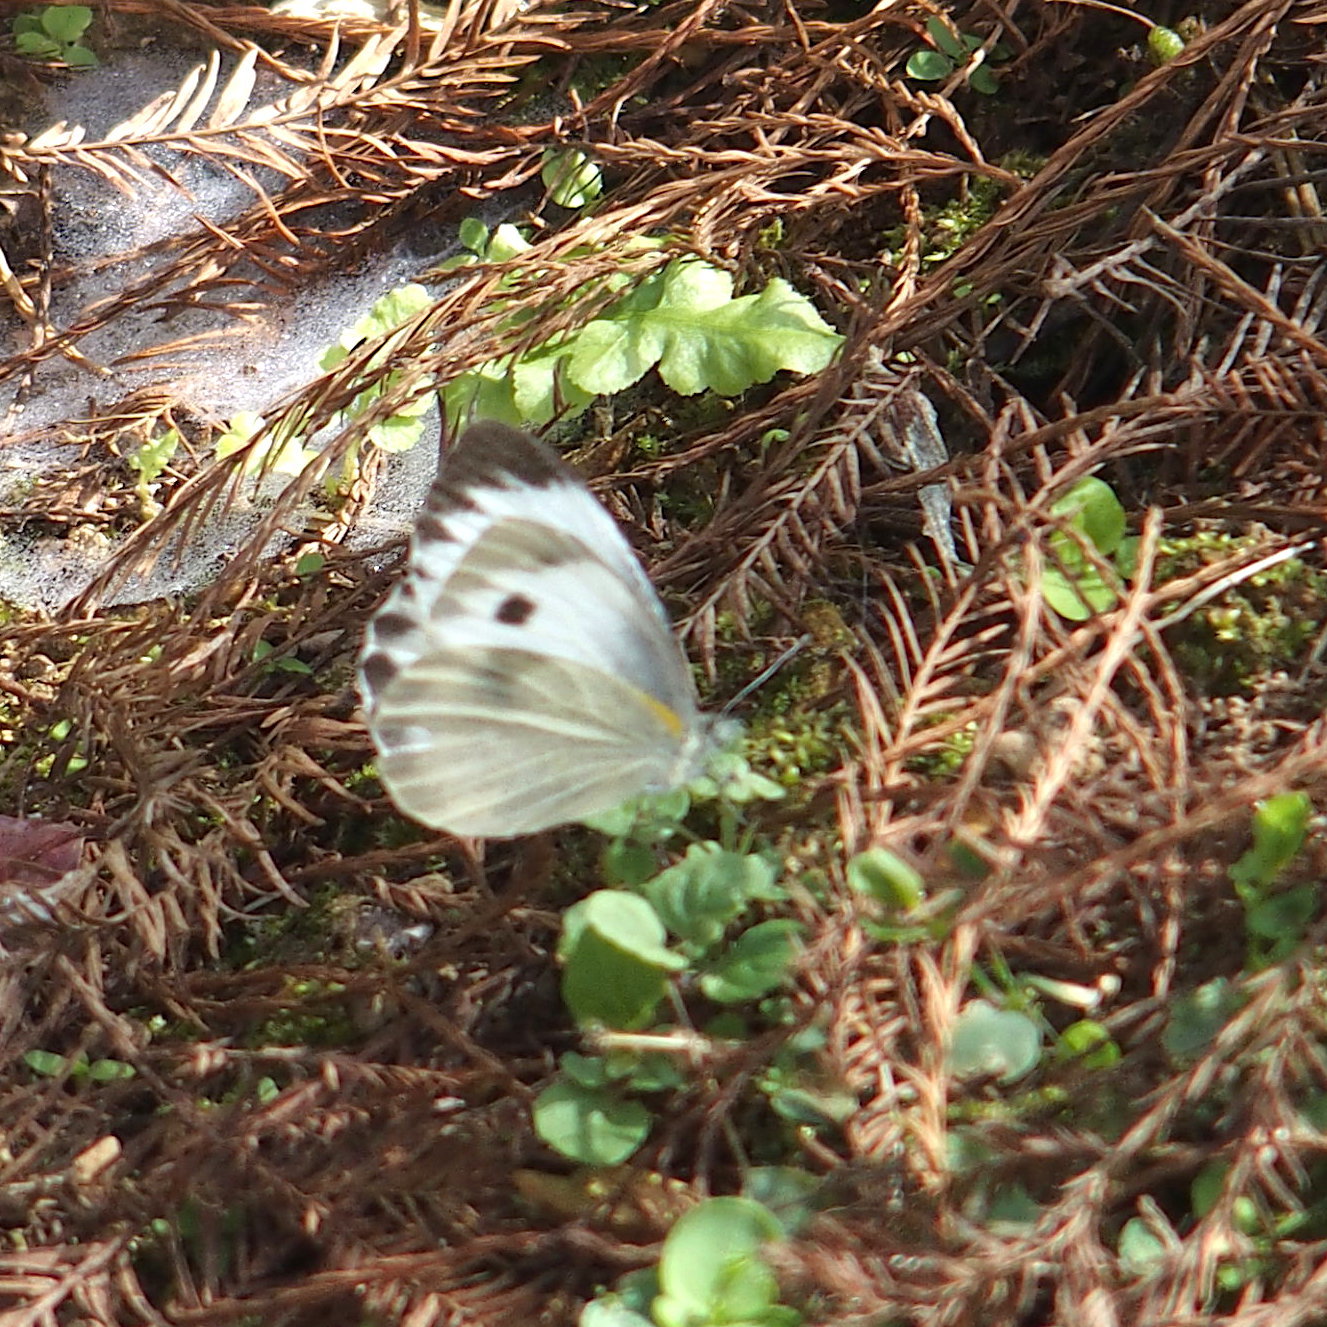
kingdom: Animalia
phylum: Arthropoda
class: Insecta
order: Lepidoptera
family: Pieridae
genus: Pieris
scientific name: Pieris canidia
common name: Indian cabbage white
